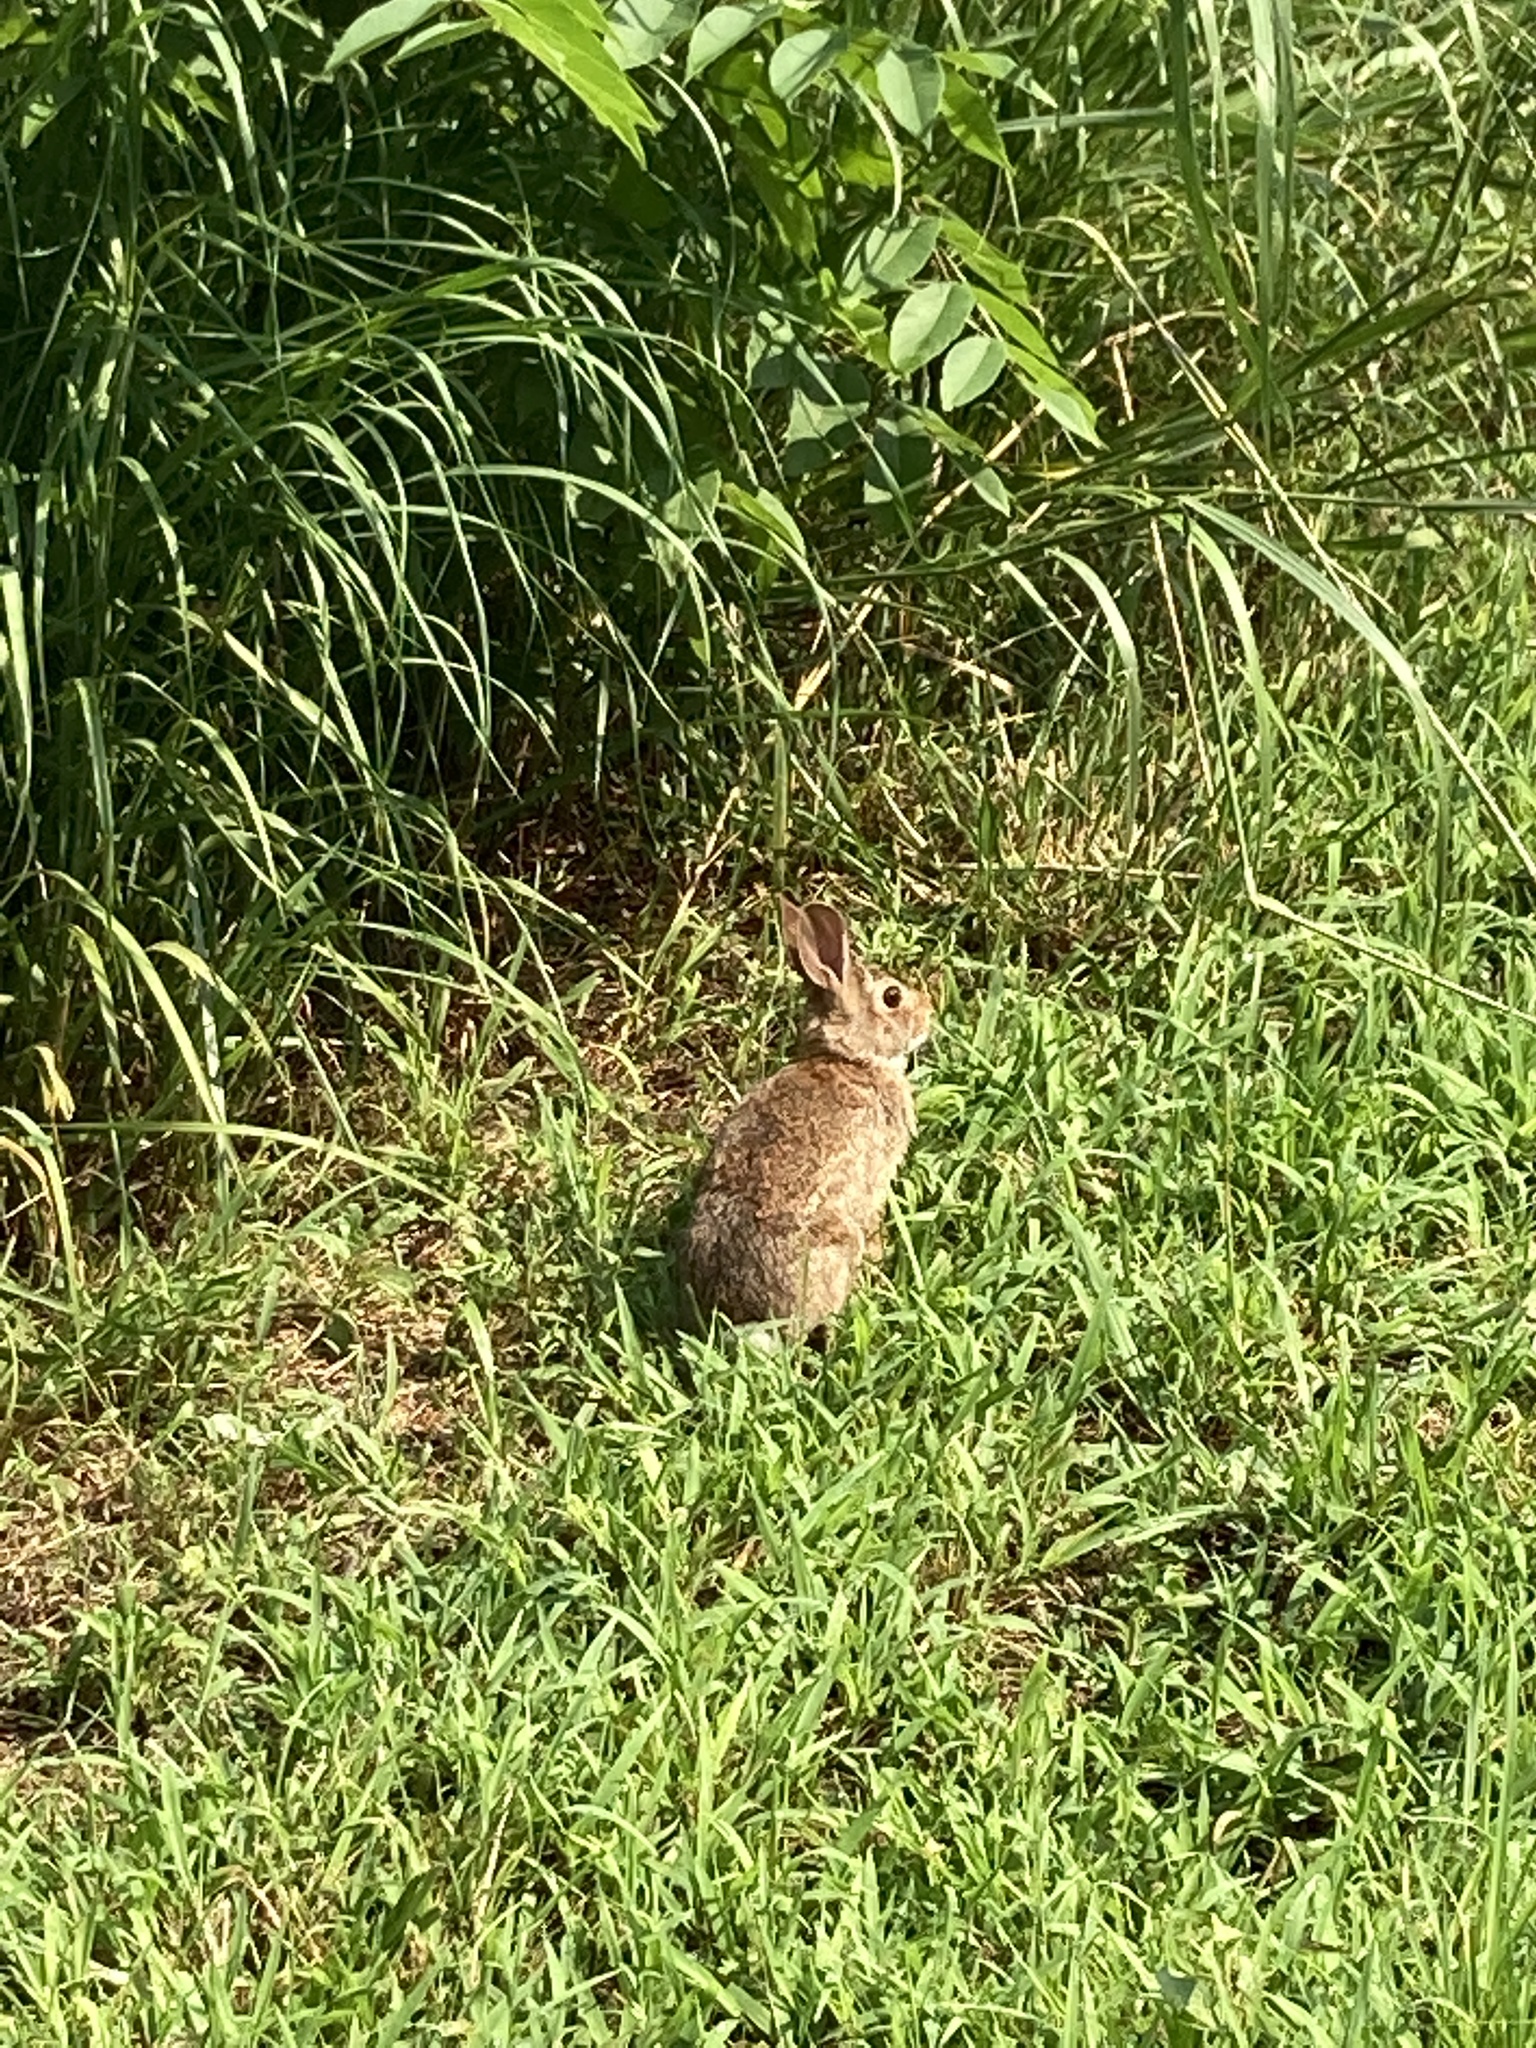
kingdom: Animalia
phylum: Chordata
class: Mammalia
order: Lagomorpha
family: Leporidae
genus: Sylvilagus
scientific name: Sylvilagus floridanus
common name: Eastern cottontail
